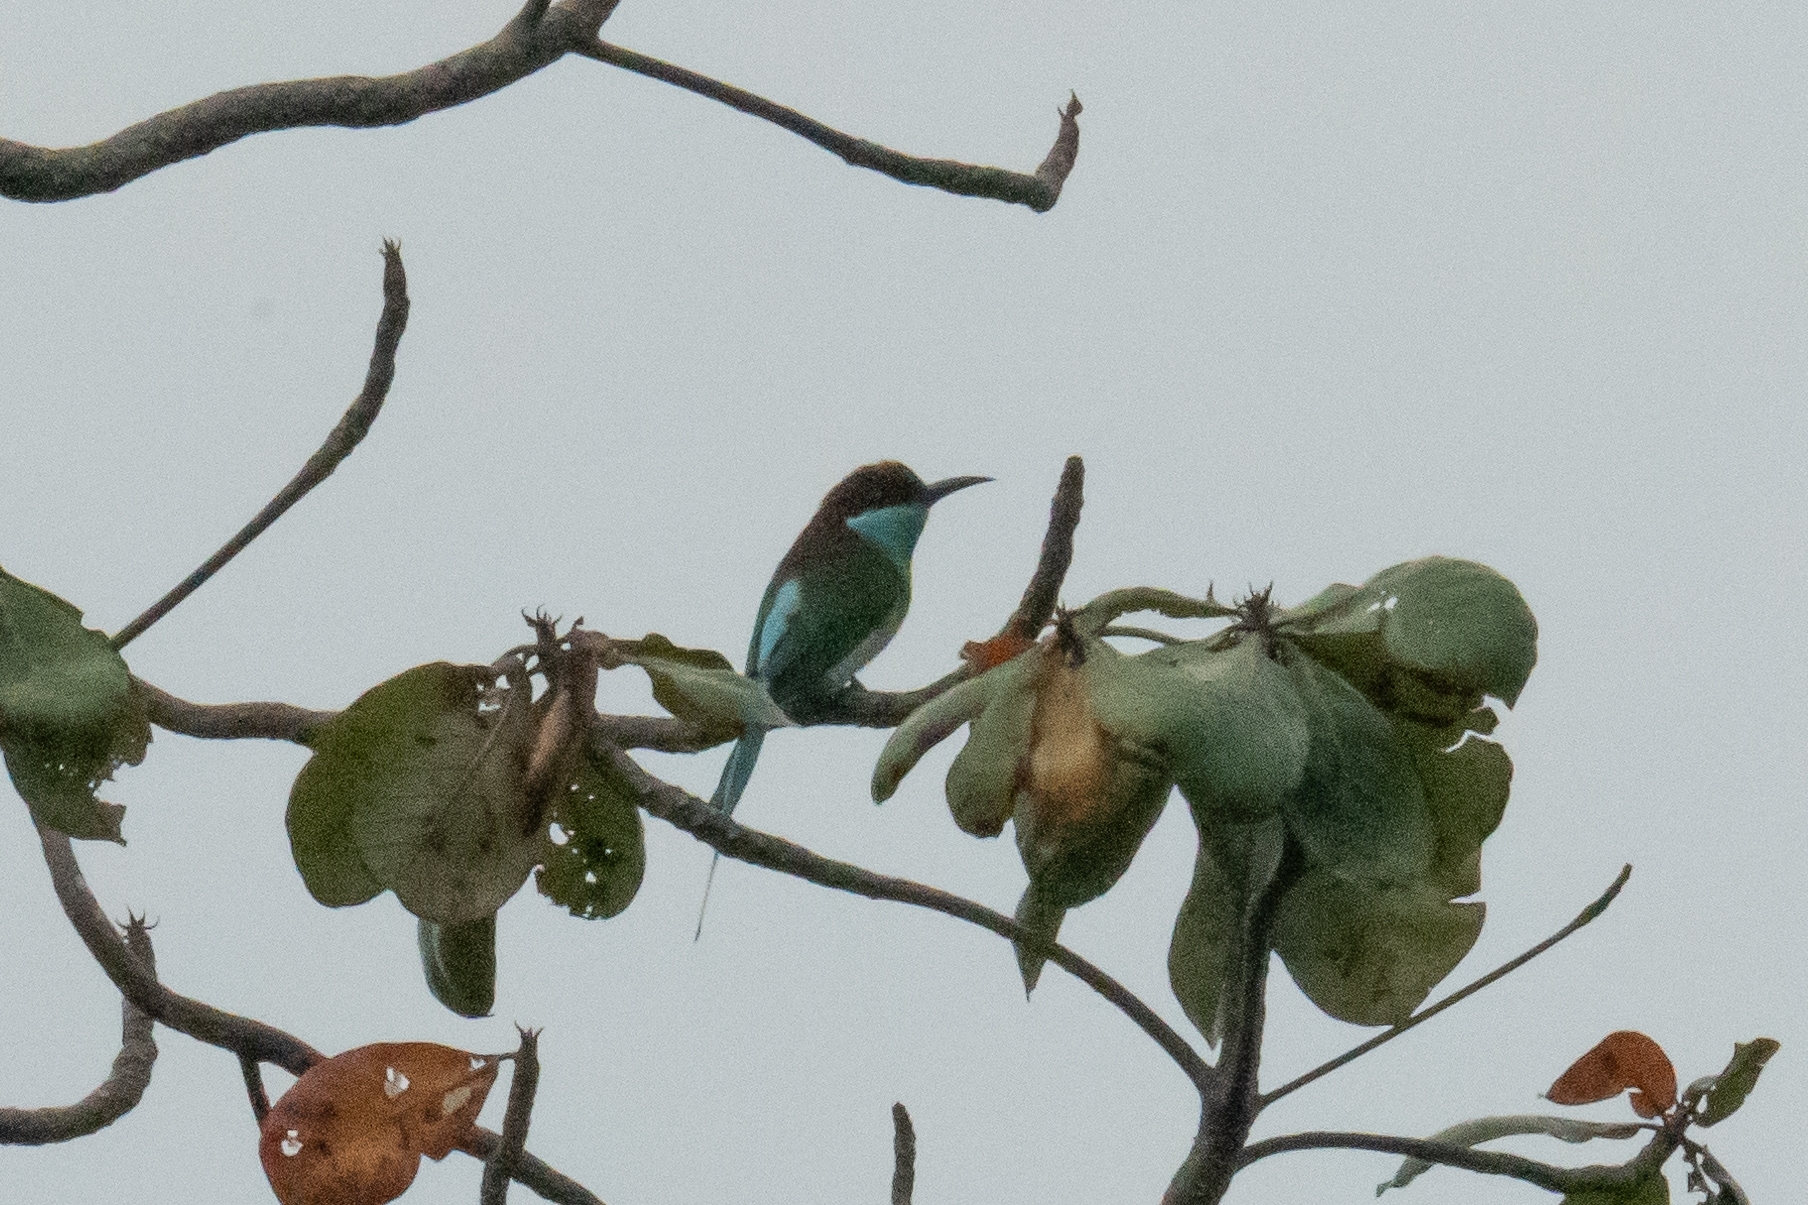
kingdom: Animalia
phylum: Chordata
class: Aves
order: Coraciiformes
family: Meropidae
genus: Merops
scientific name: Merops viridis
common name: Blue-throated bee-eater
